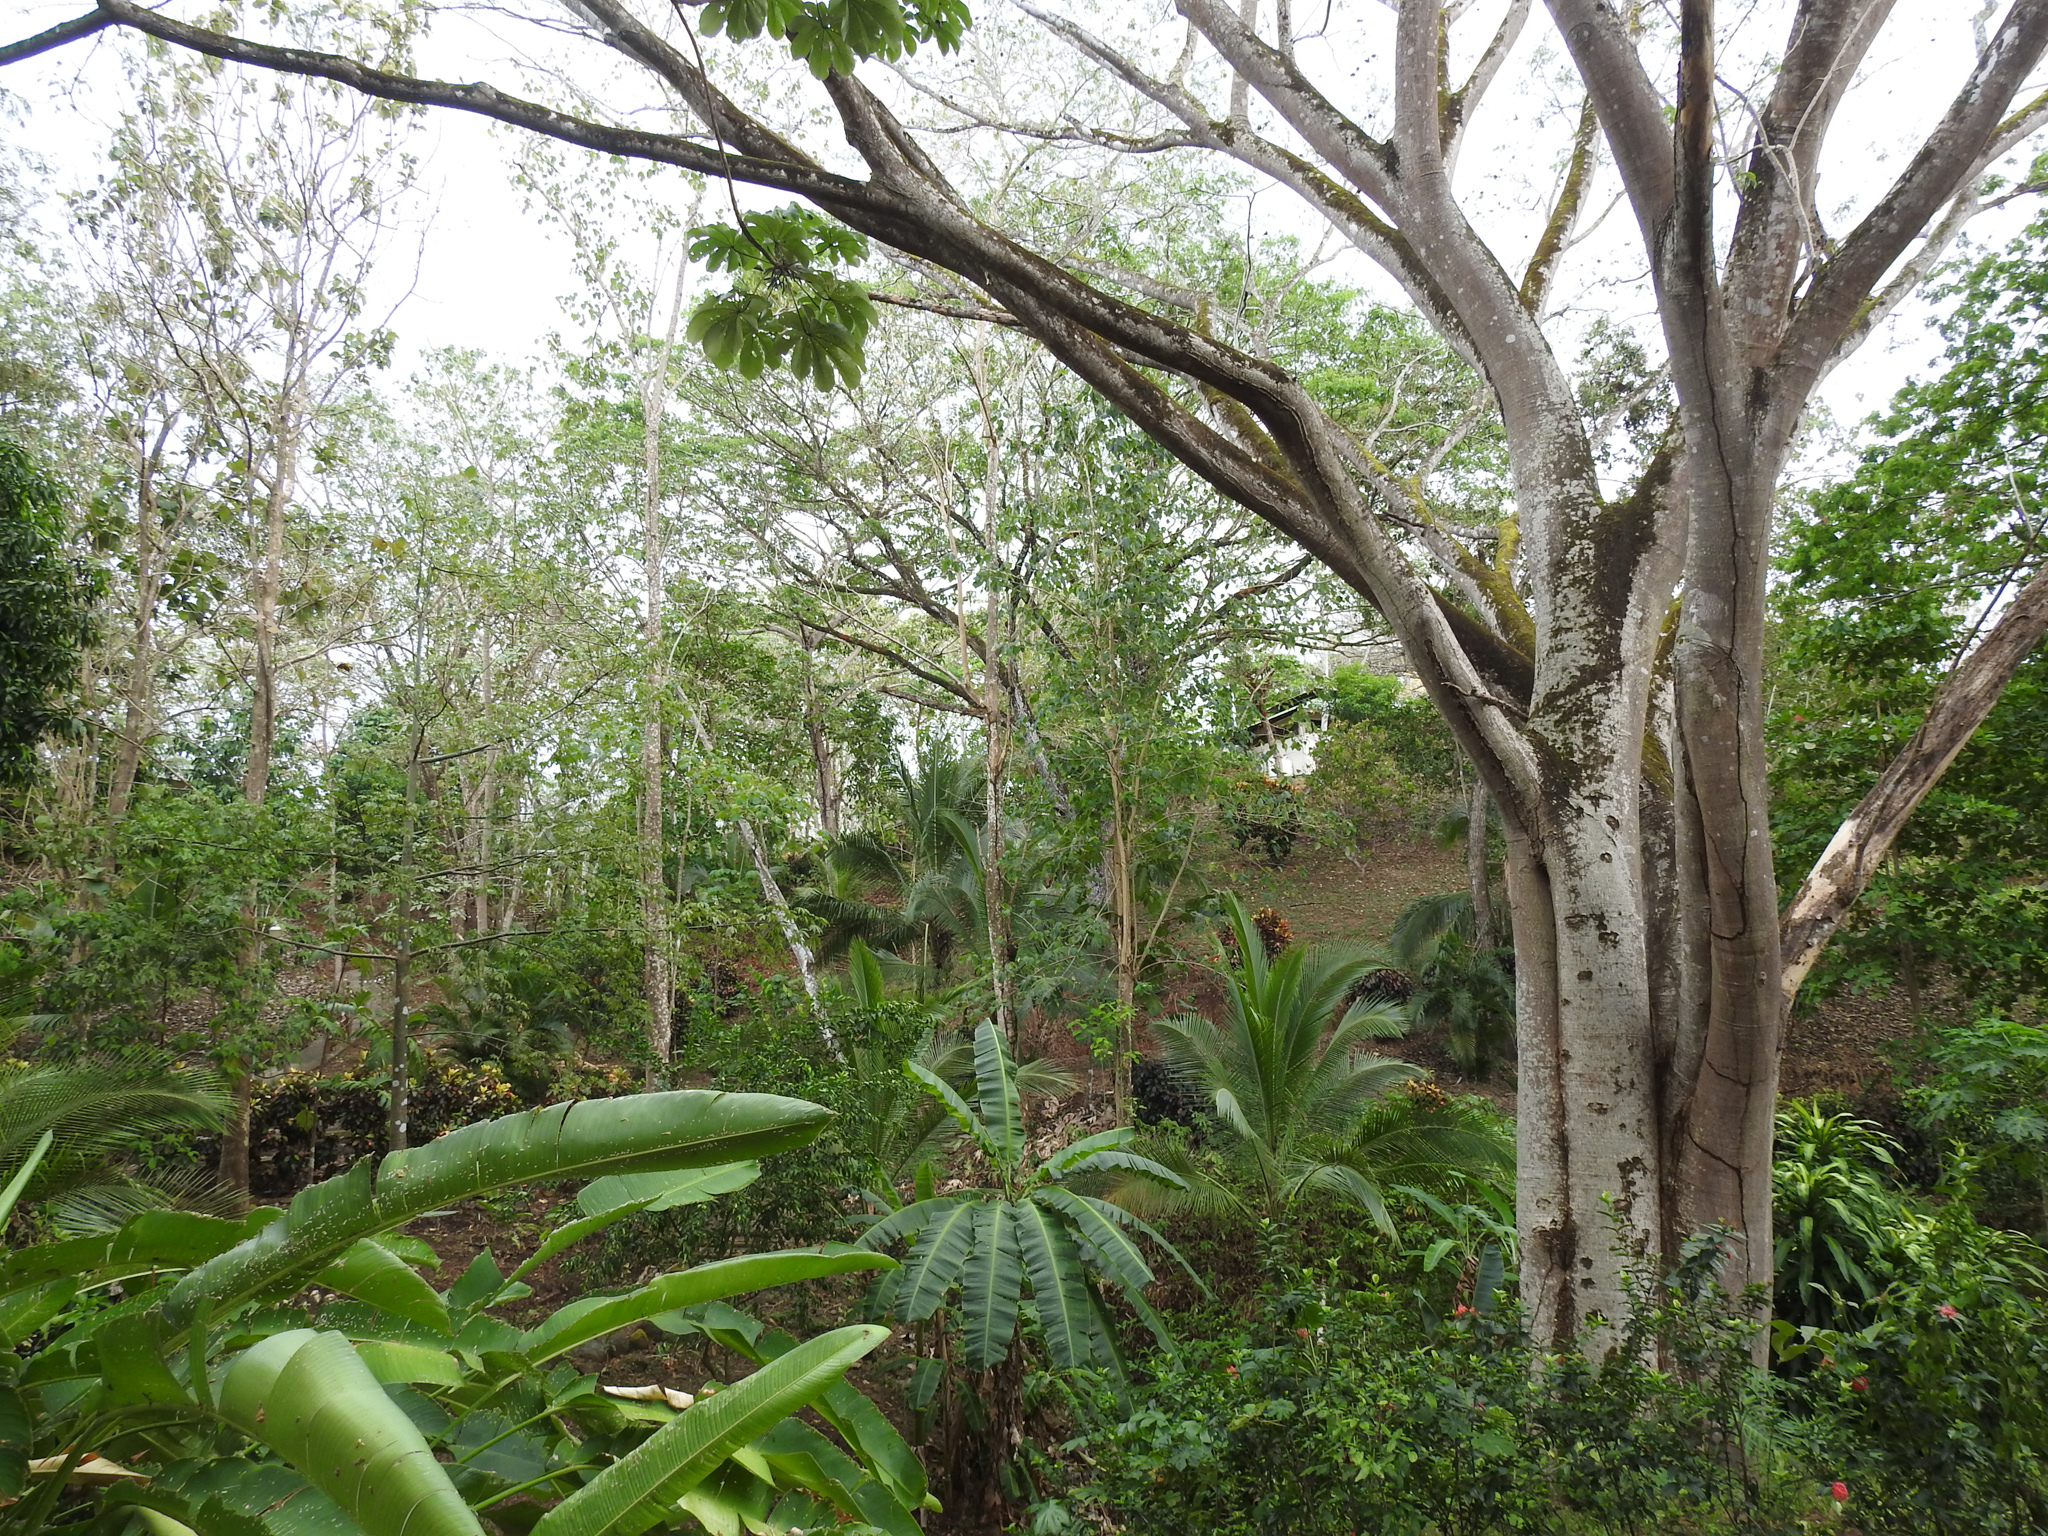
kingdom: Plantae
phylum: Tracheophyta
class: Magnoliopsida
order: Fabales
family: Fabaceae
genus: Enterolobium
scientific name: Enterolobium cyclocarpum
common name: Ear tree
